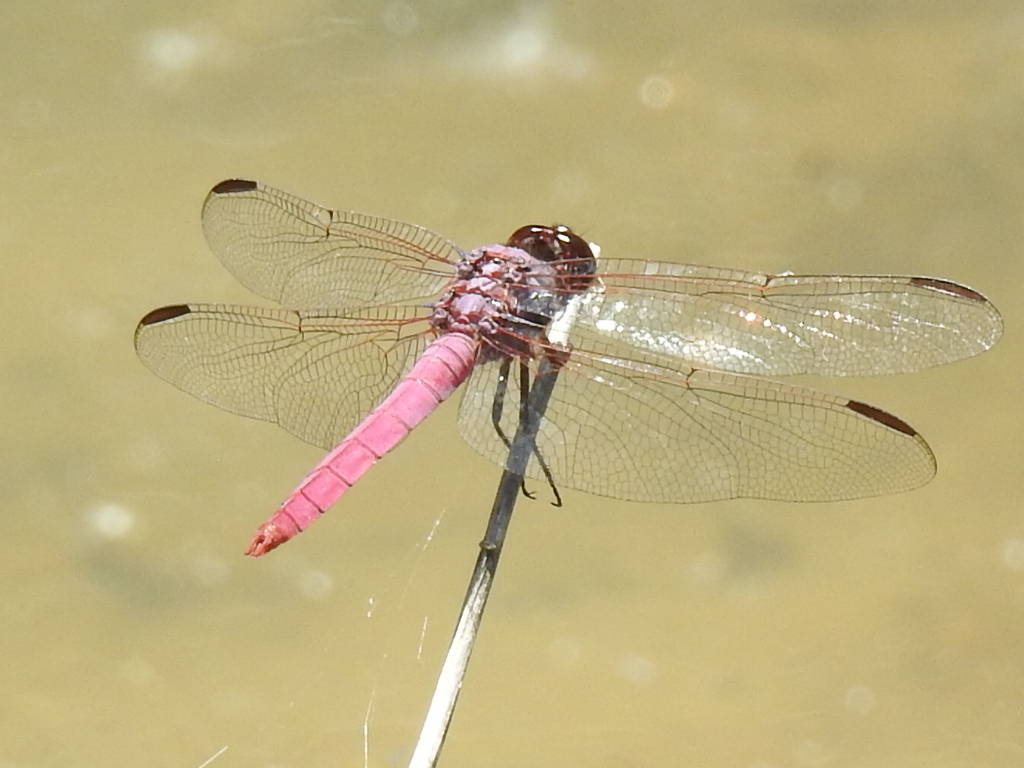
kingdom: Animalia
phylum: Arthropoda
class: Insecta
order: Odonata
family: Libellulidae
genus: Orthemis
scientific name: Orthemis ferruginea
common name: Roseate skimmer
